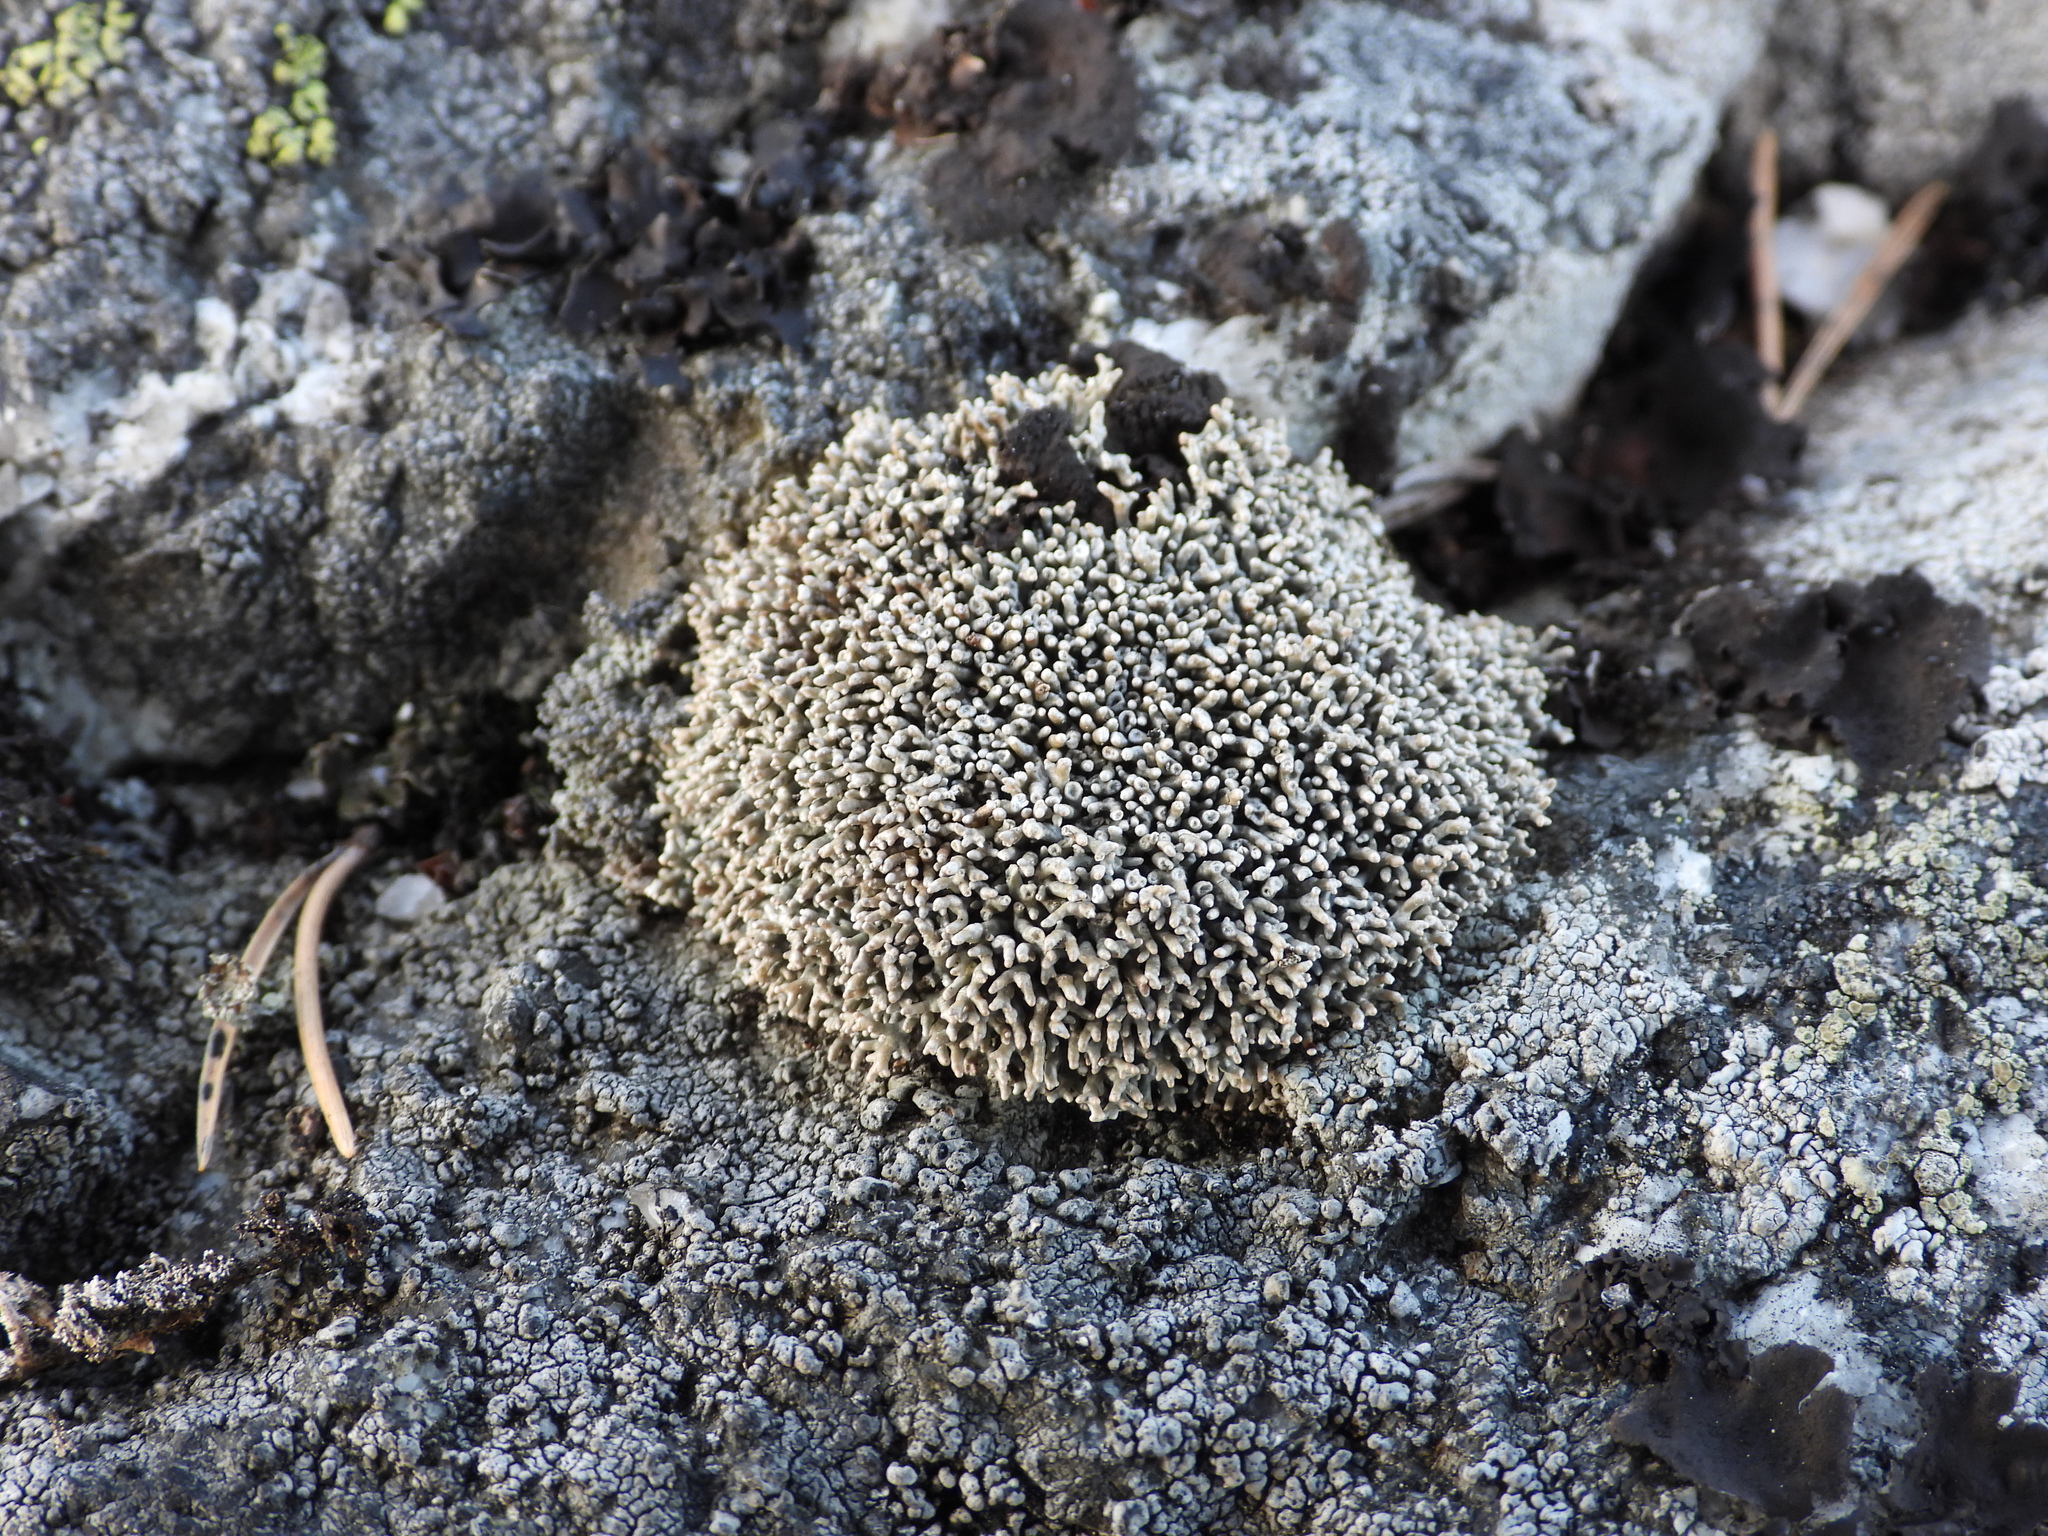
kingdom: Fungi
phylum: Ascomycota
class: Lecanoromycetes
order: Lecanorales
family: Sphaerophoraceae
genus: Sphaerophorus
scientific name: Sphaerophorus fragilis
